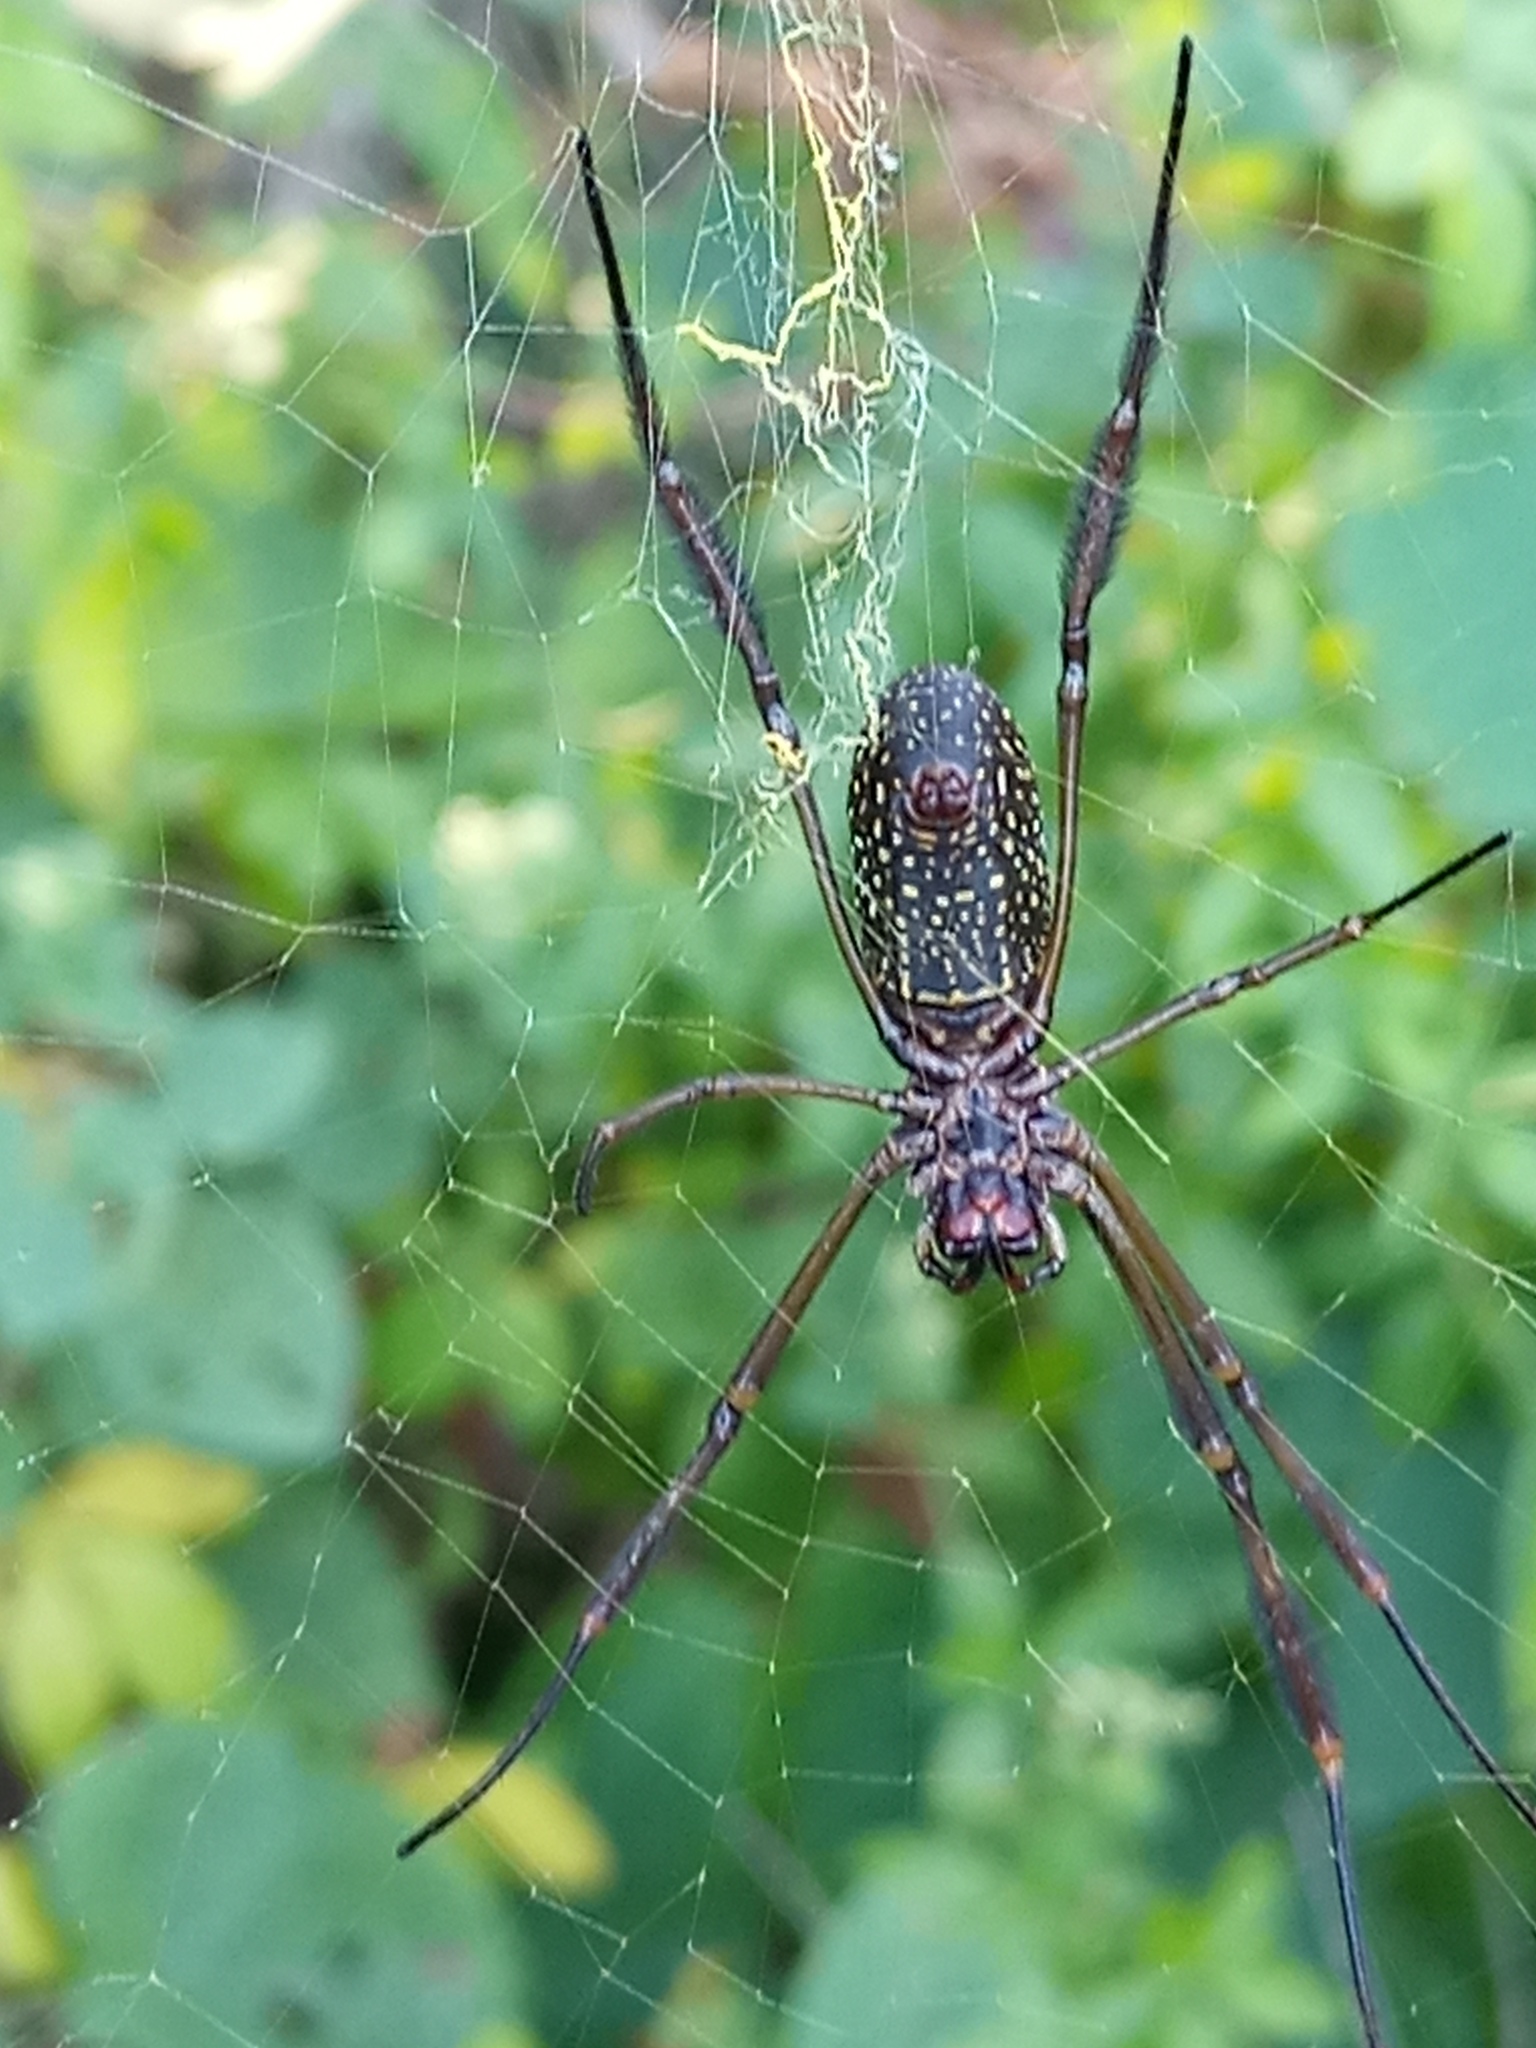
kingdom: Animalia
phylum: Arthropoda
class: Arachnida
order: Araneae
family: Araneidae
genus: Trichonephila
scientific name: Trichonephila clavipes
